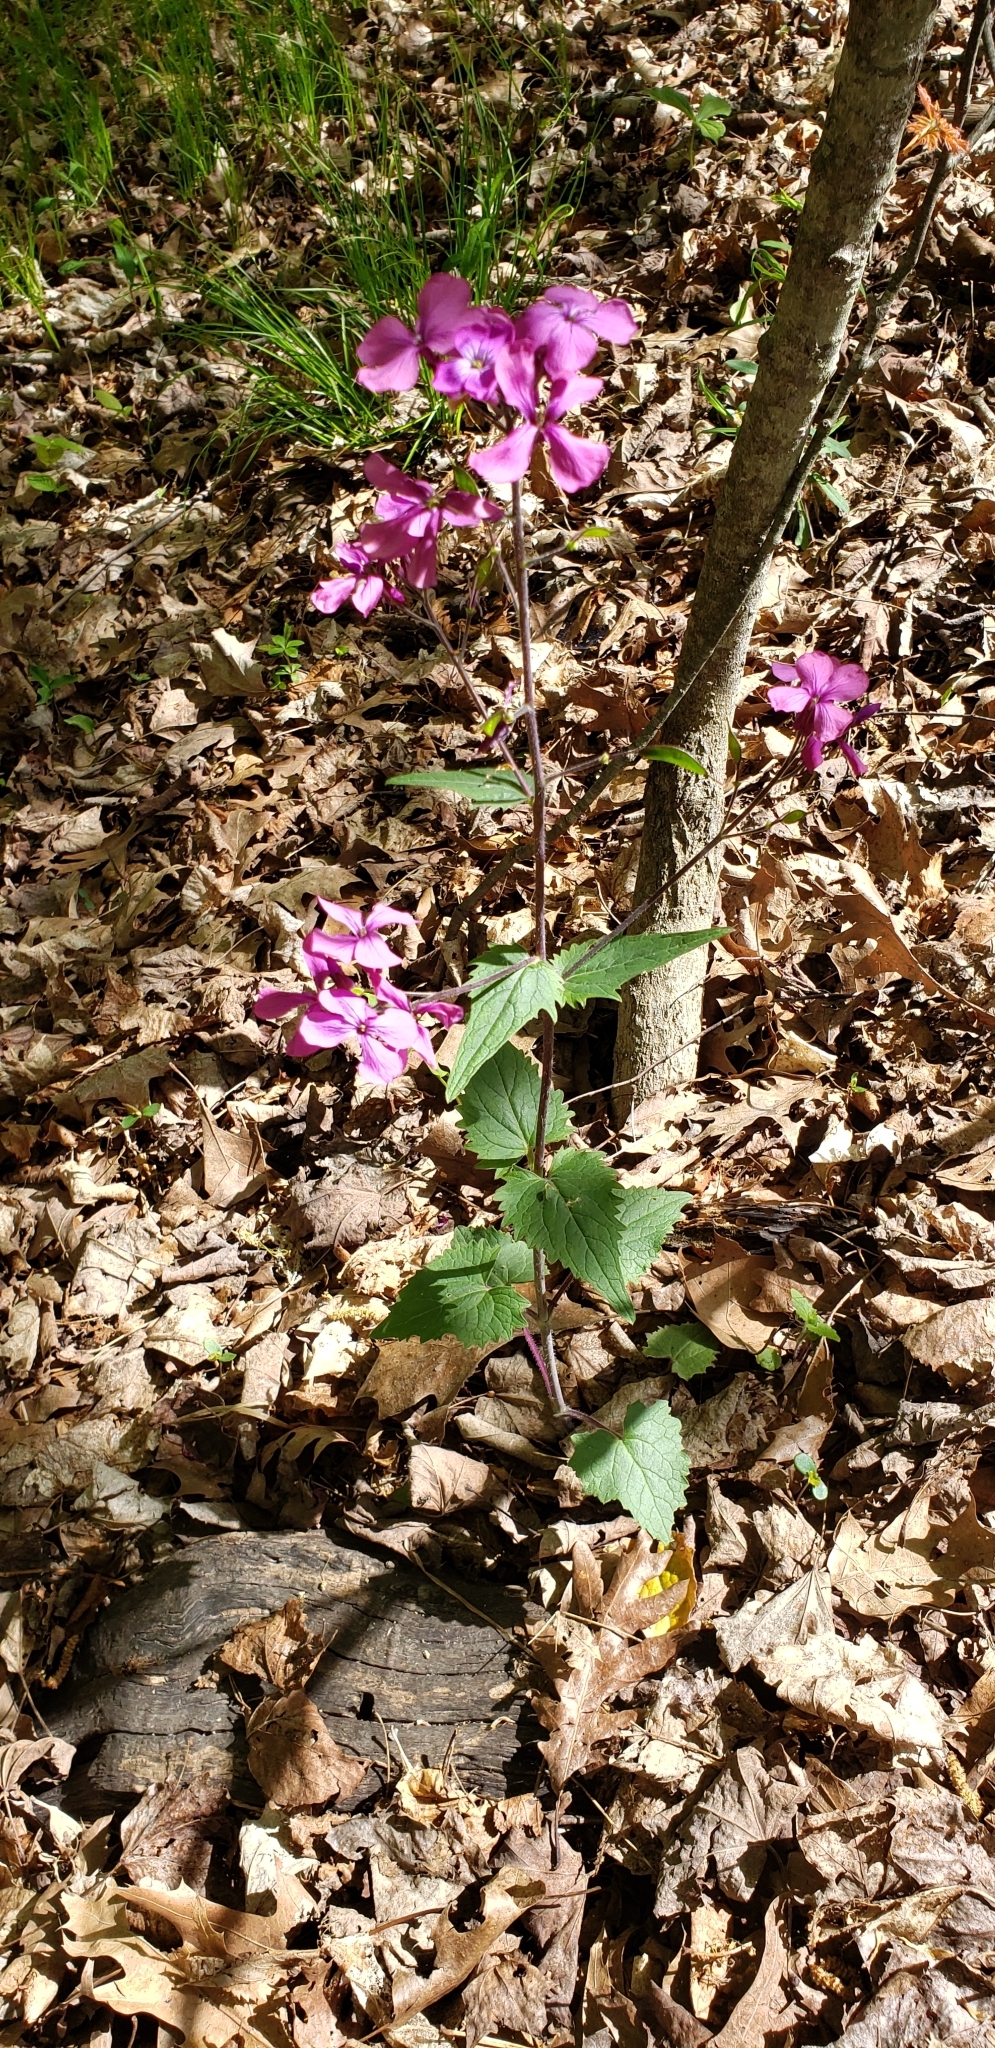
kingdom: Plantae
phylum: Tracheophyta
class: Magnoliopsida
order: Brassicales
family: Brassicaceae
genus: Lunaria
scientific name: Lunaria annua
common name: Honesty
